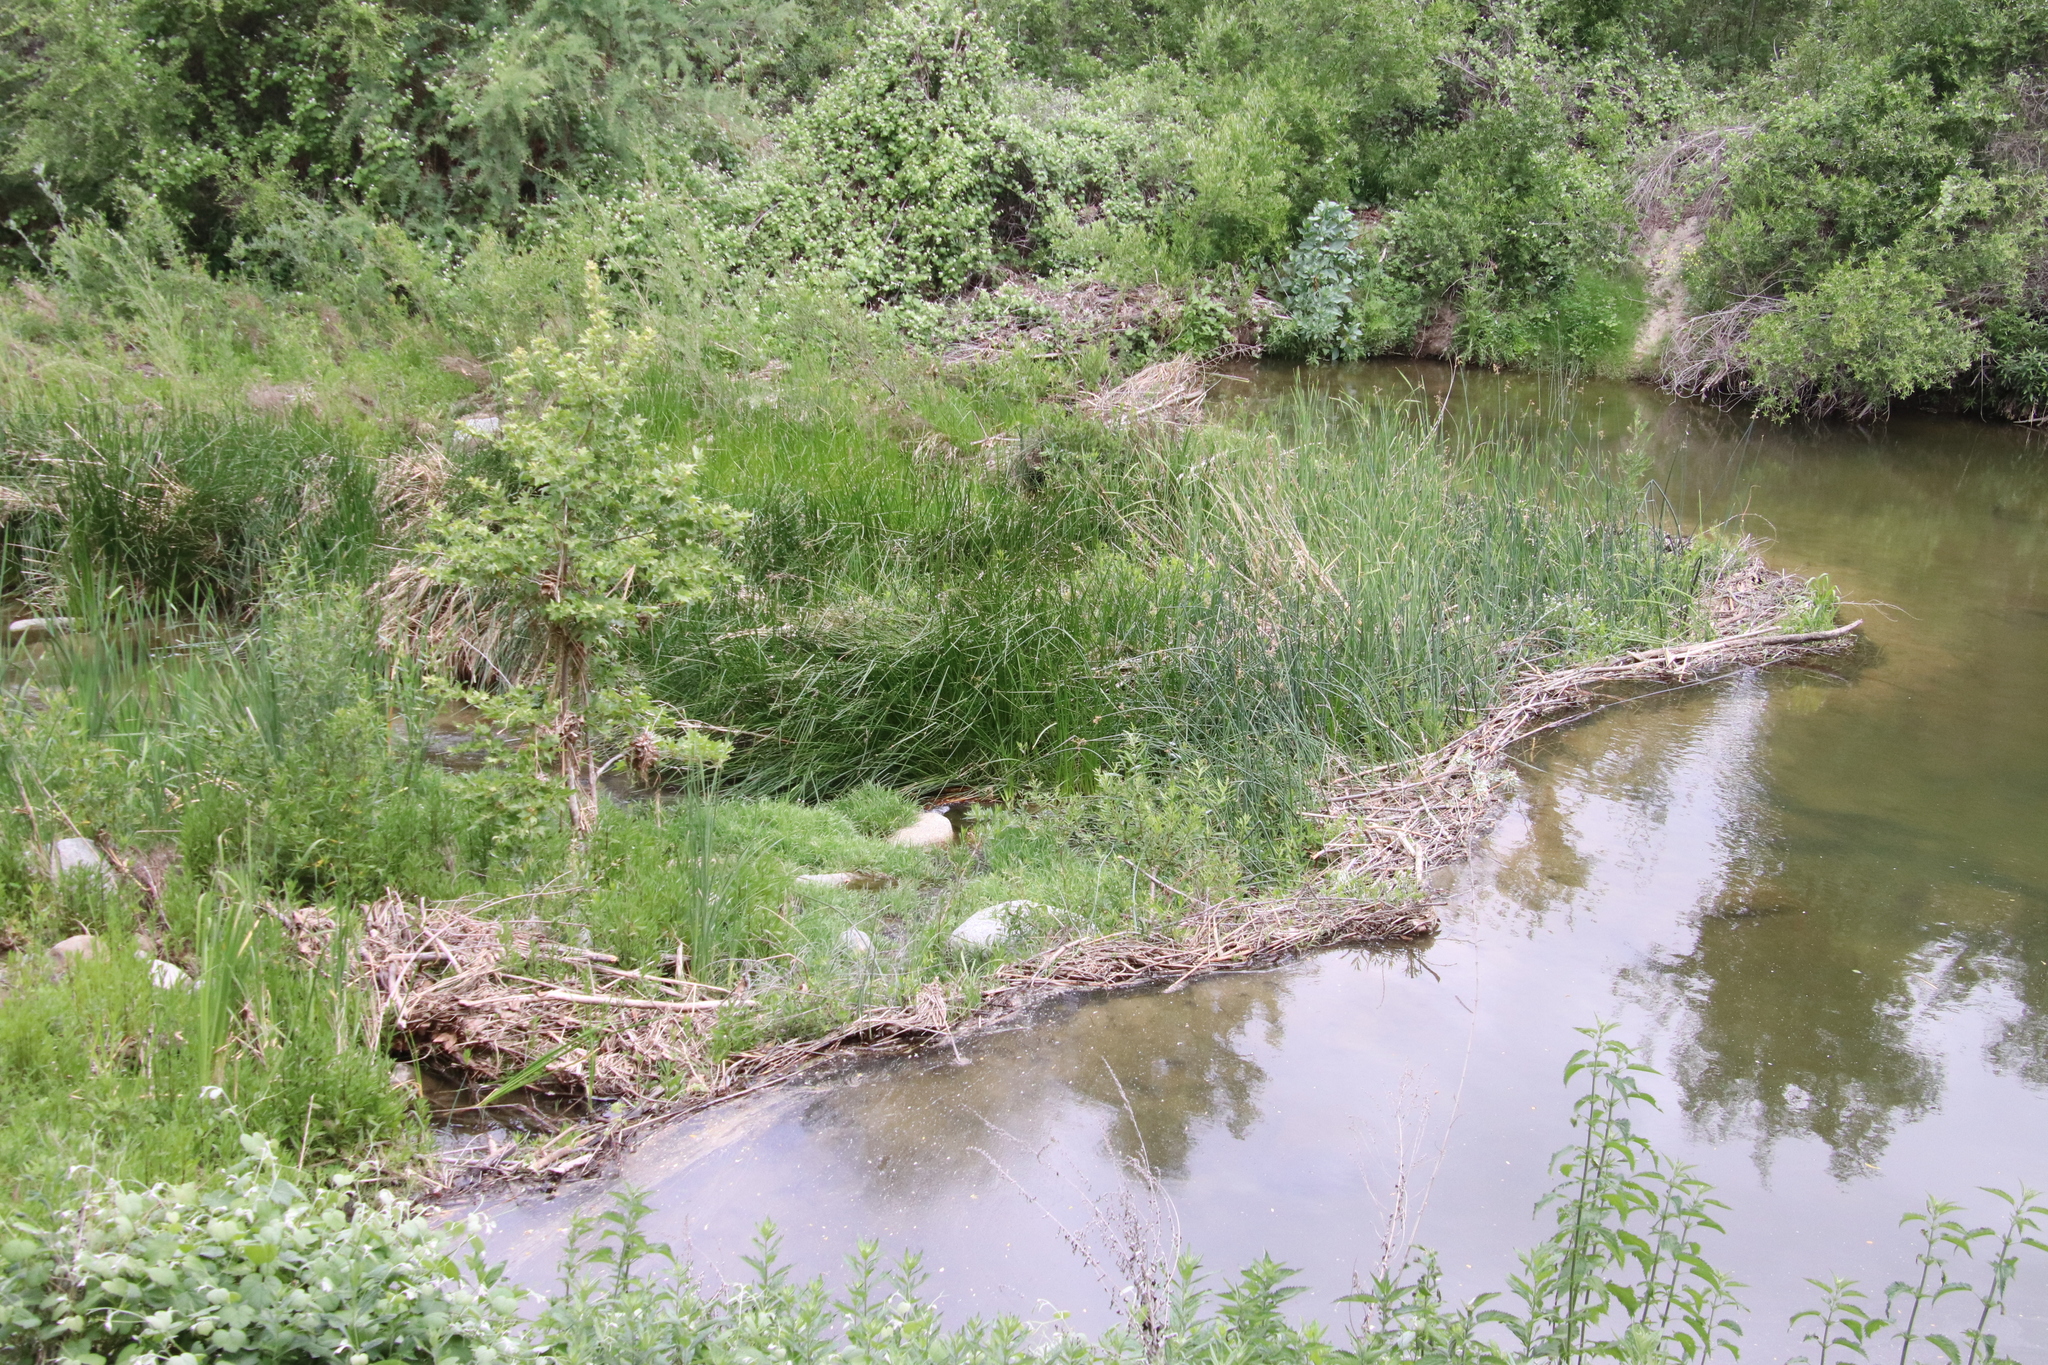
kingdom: Animalia
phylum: Chordata
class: Mammalia
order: Rodentia
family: Castoridae
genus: Castor
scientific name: Castor canadensis
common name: American beaver
